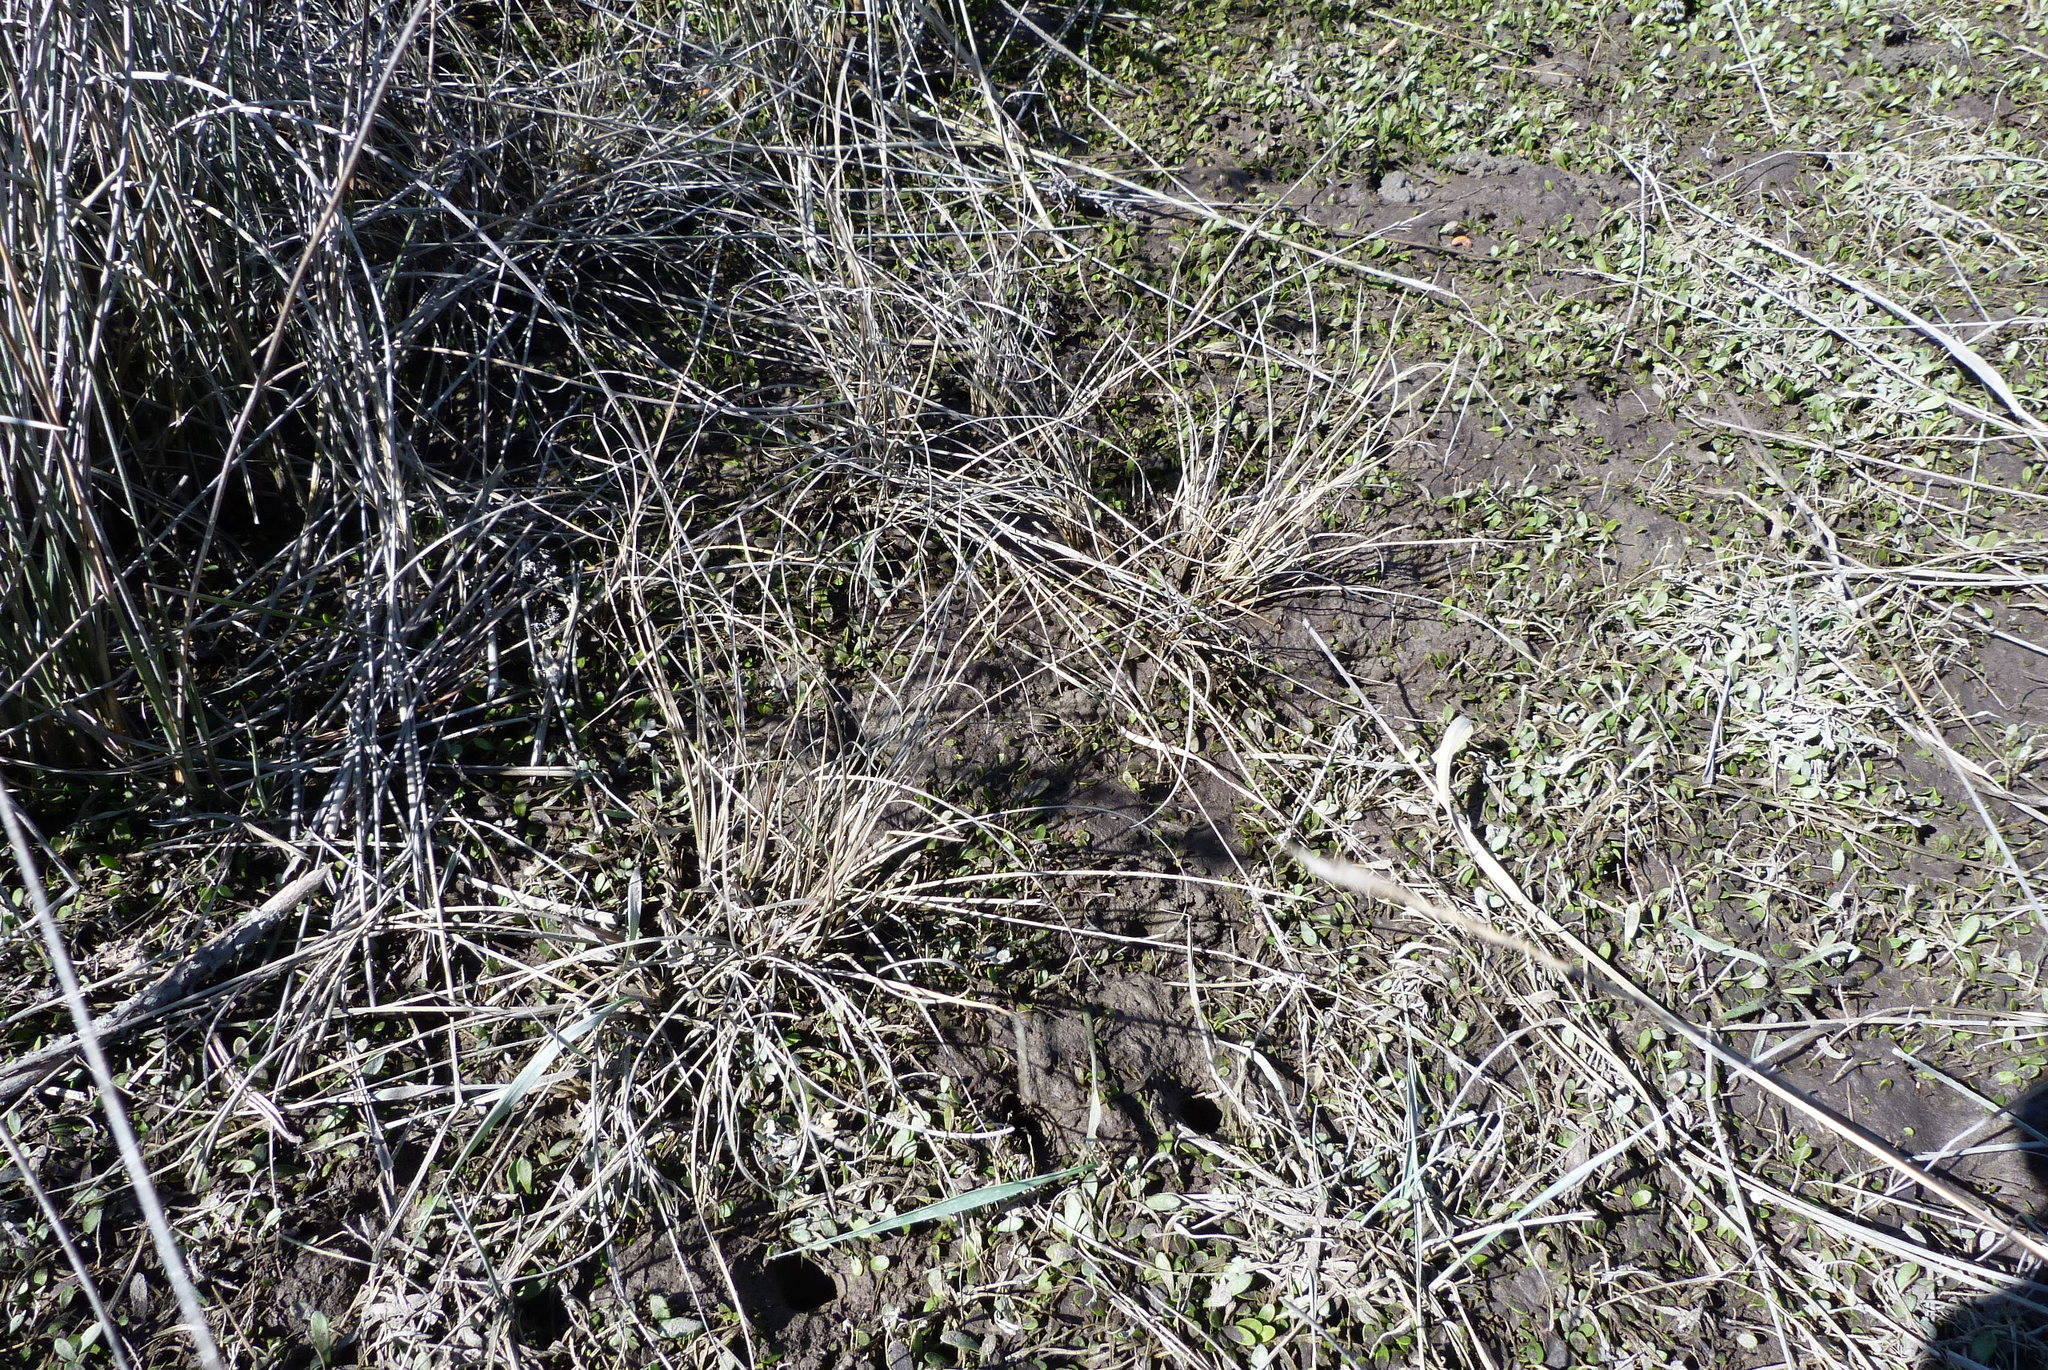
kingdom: Plantae
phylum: Tracheophyta
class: Liliopsida
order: Poales
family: Cyperaceae
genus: Carex
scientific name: Carex litorosa
